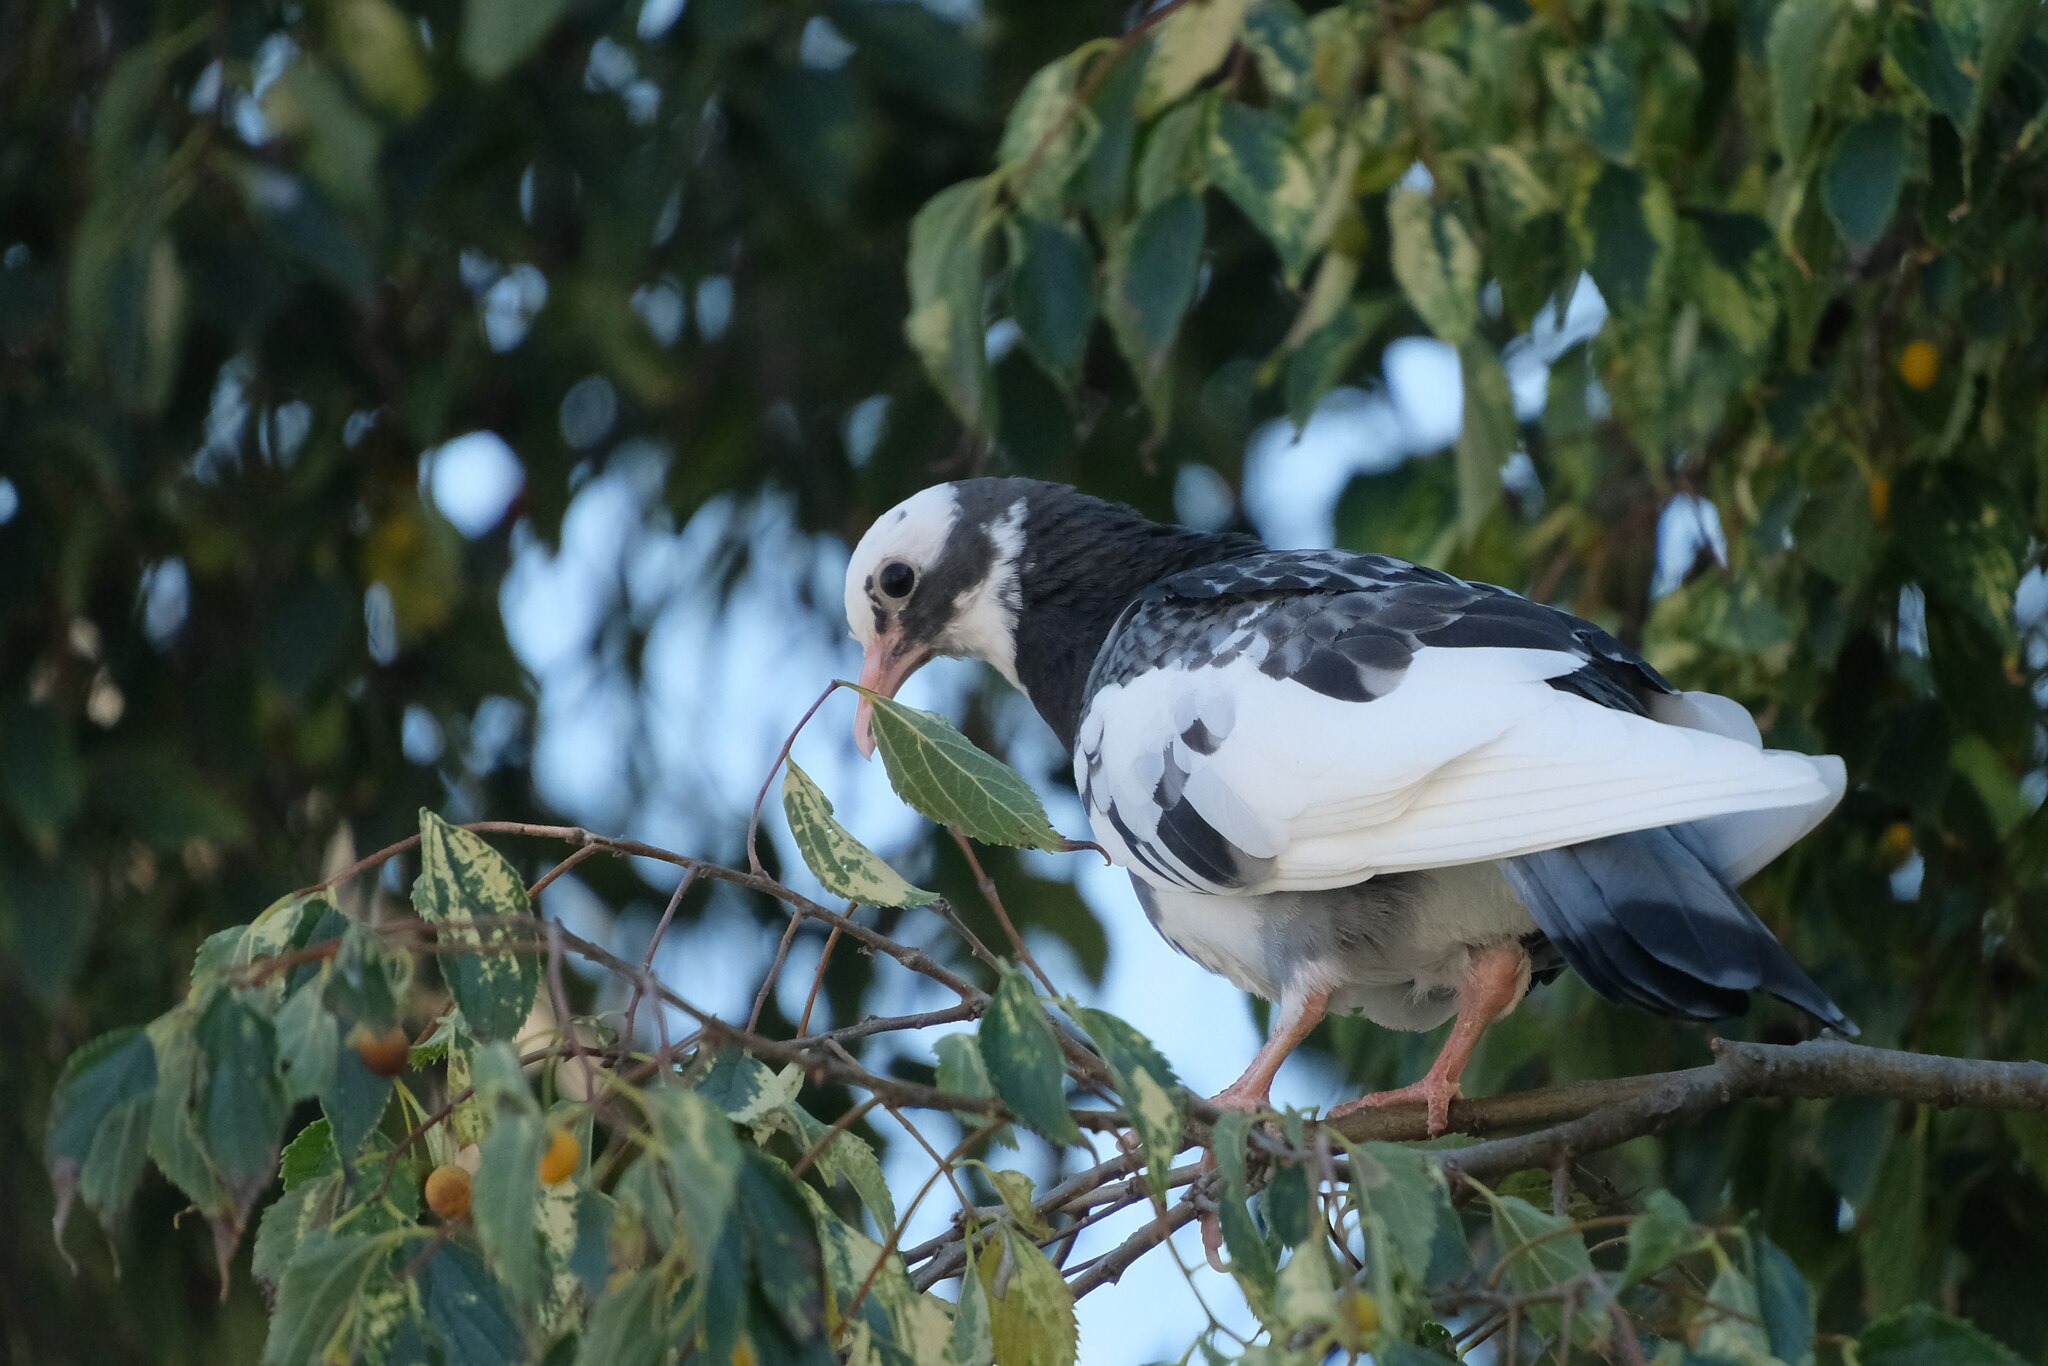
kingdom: Animalia
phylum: Chordata
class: Aves
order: Columbiformes
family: Columbidae
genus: Columba
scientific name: Columba livia
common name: Rock pigeon
